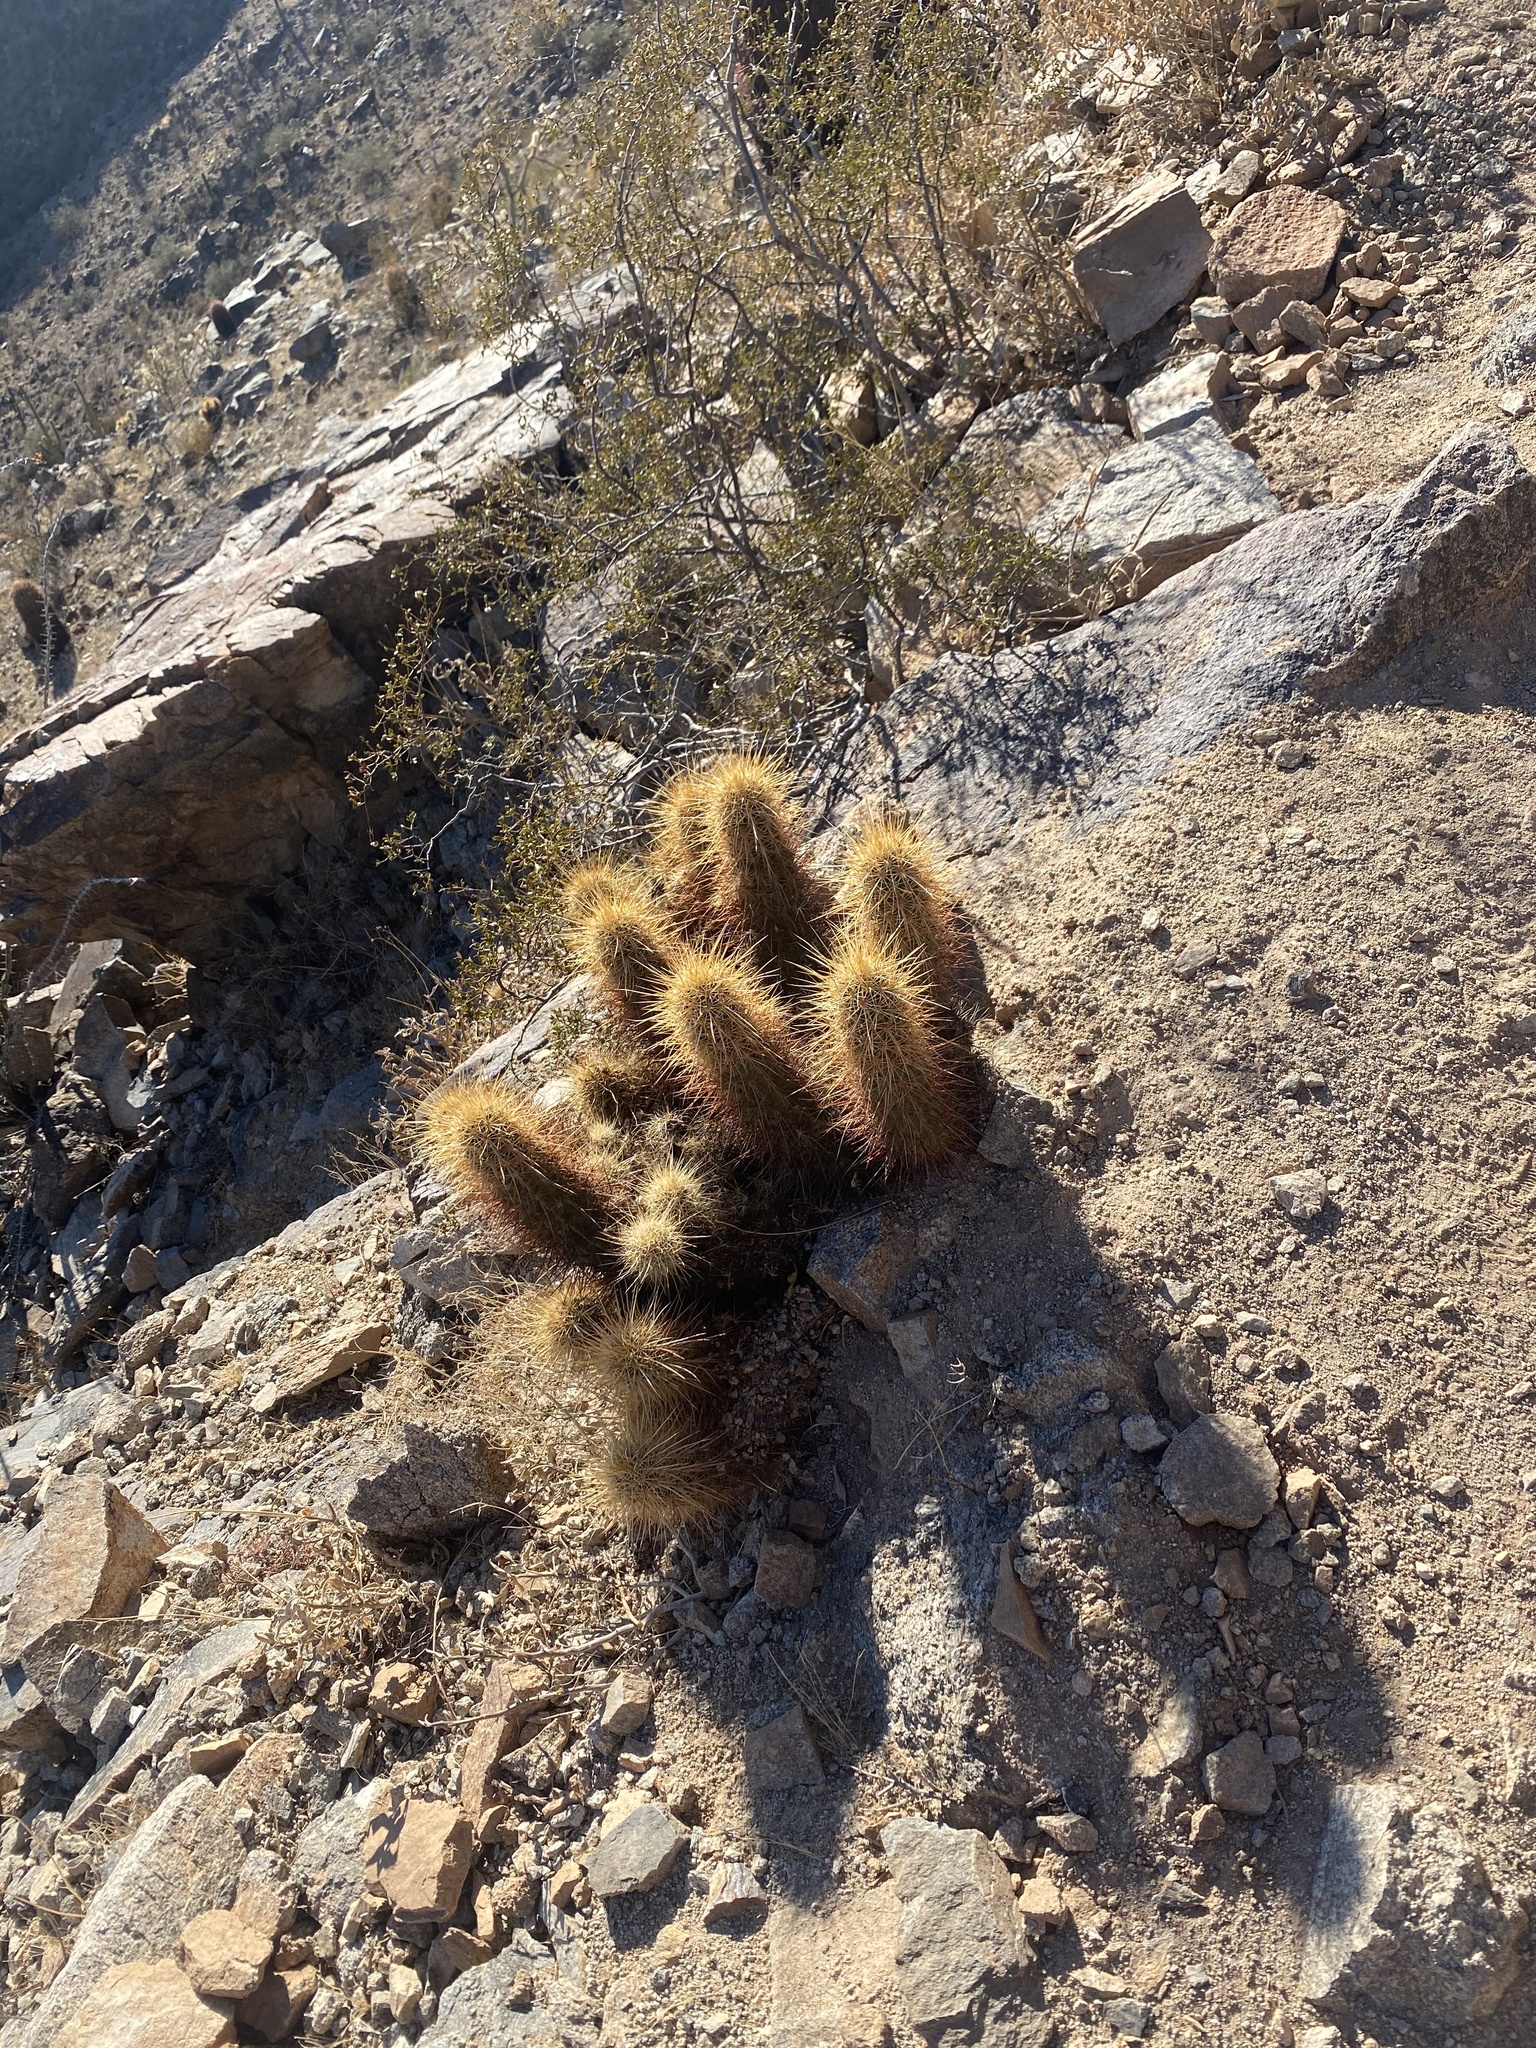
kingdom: Plantae
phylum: Tracheophyta
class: Magnoliopsida
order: Caryophyllales
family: Cactaceae
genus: Echinocereus
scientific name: Echinocereus engelmannii
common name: Engelmann's hedgehog cactus
